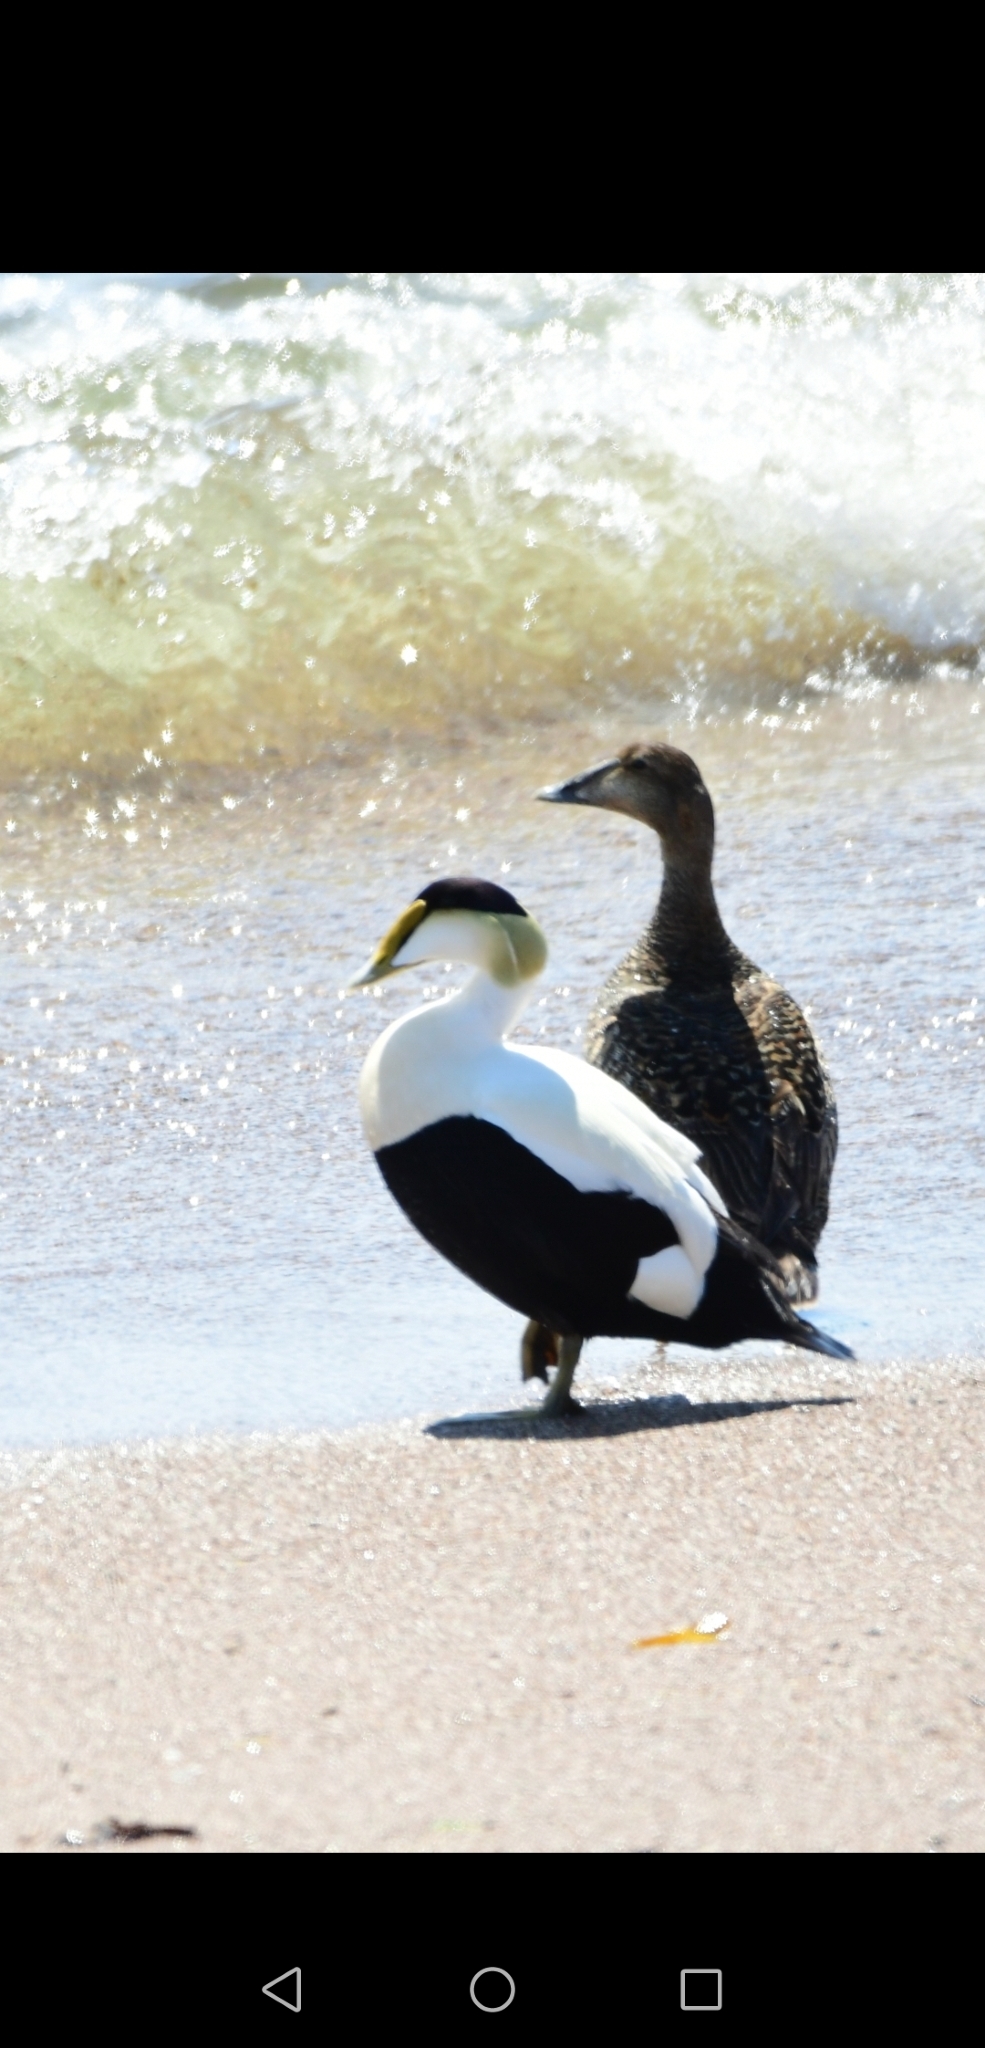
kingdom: Animalia
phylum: Chordata
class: Aves
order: Anseriformes
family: Anatidae
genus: Somateria
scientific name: Somateria mollissima
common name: Common eider
